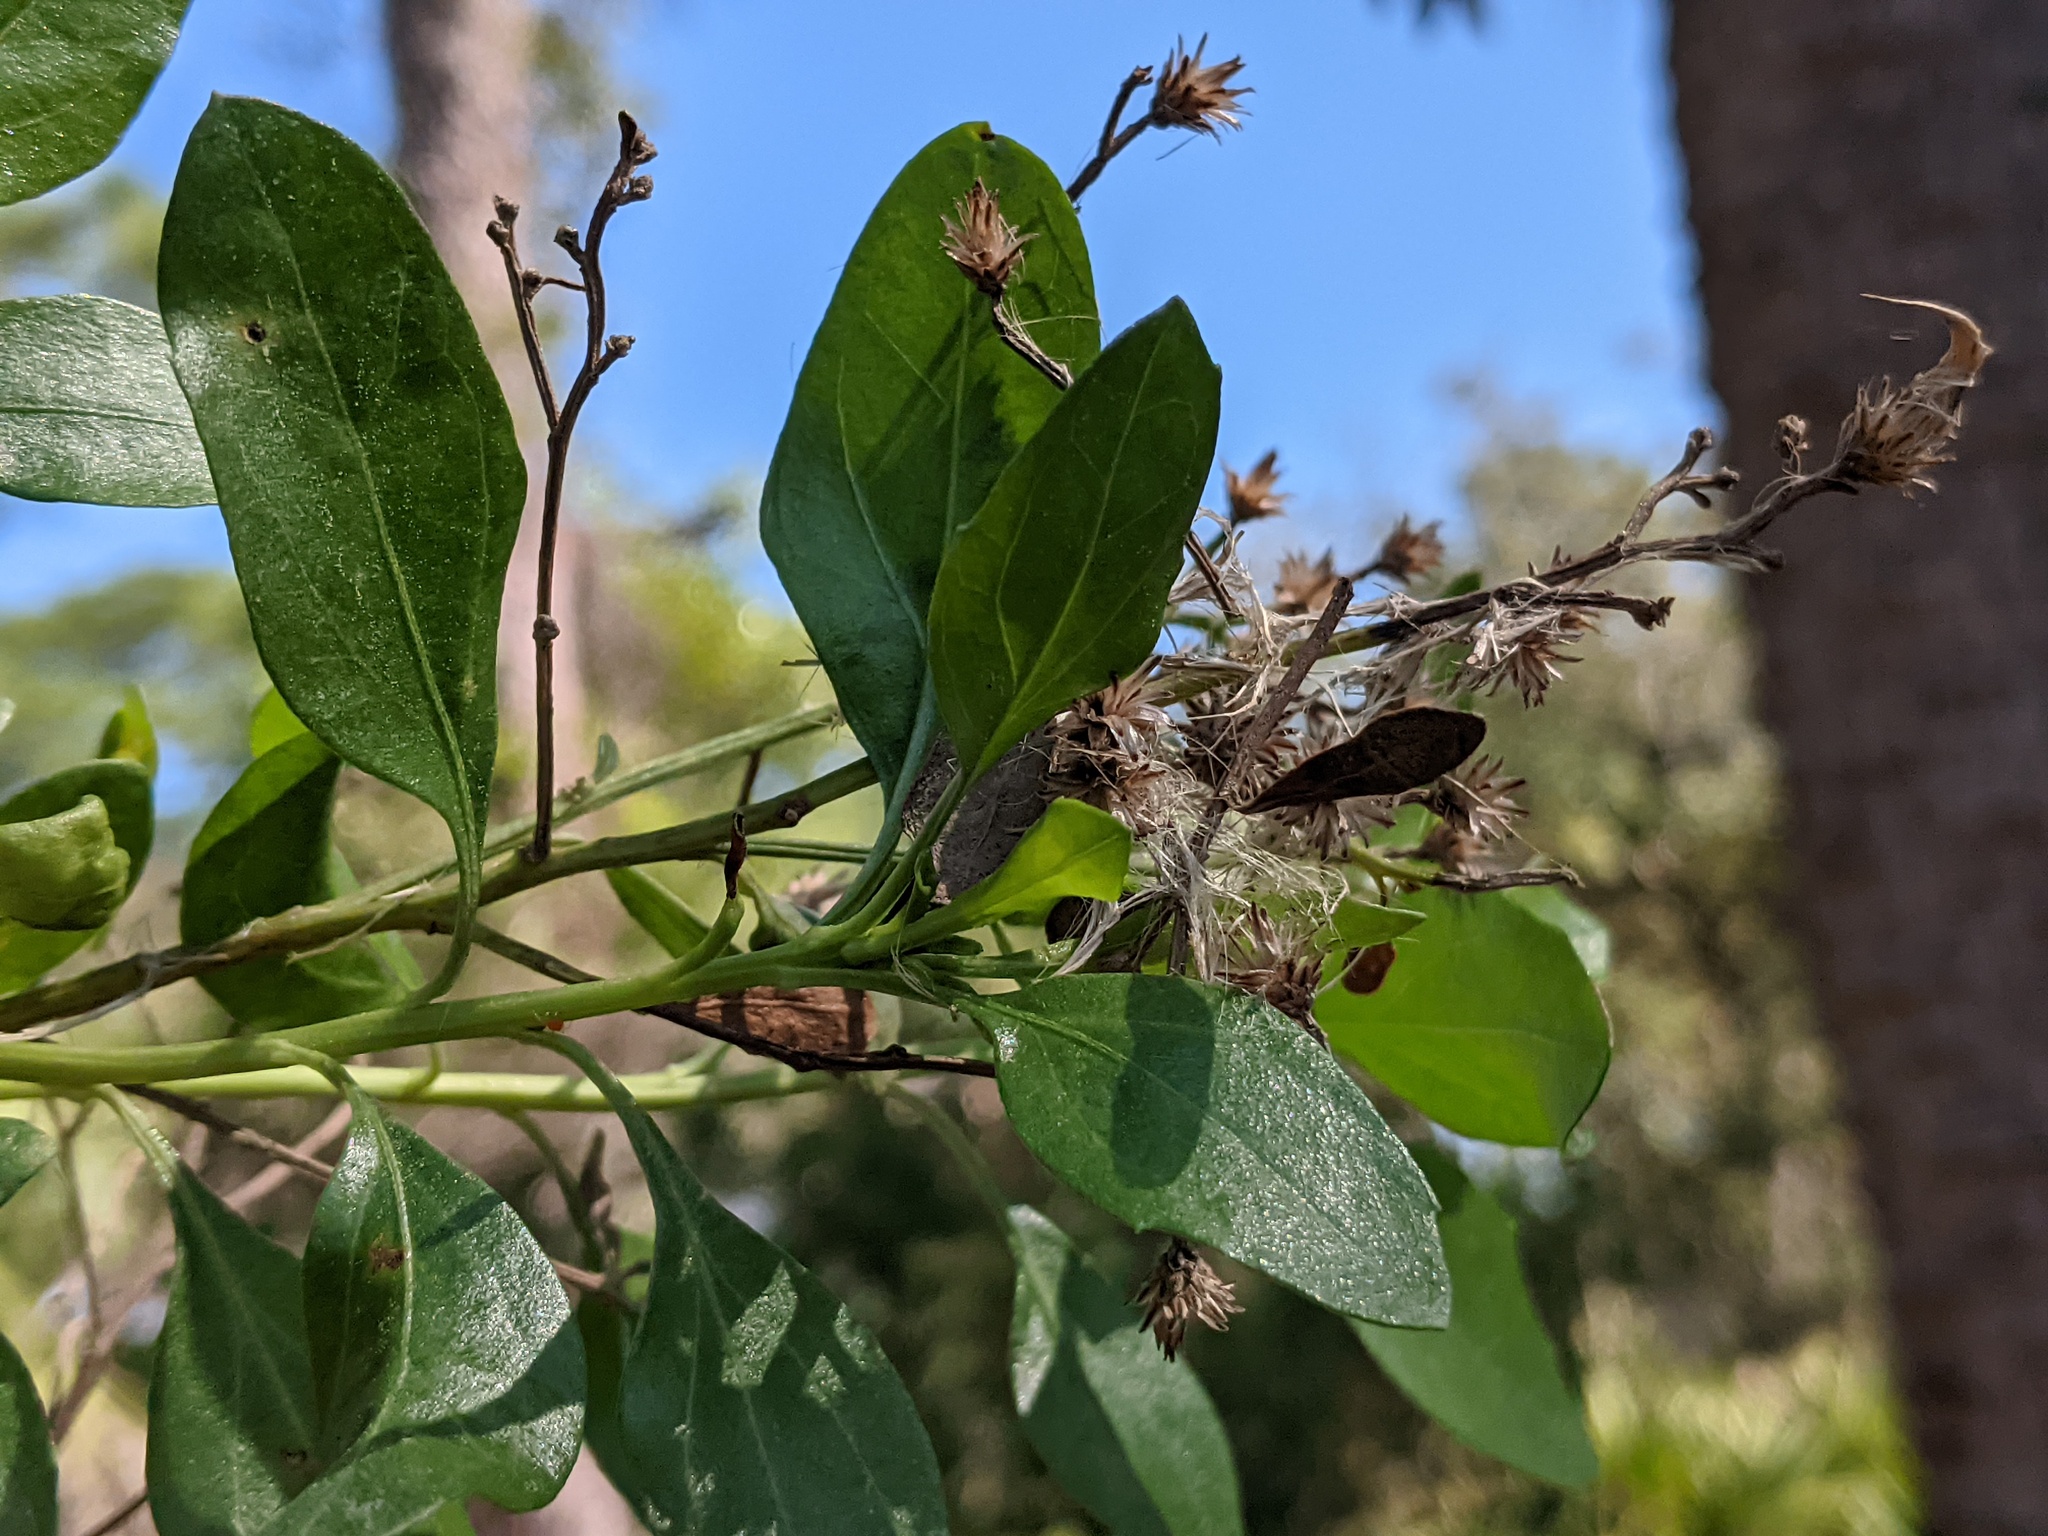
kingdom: Plantae
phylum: Tracheophyta
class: Magnoliopsida
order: Asterales
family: Asteraceae
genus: Baccharis
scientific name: Baccharis halimifolia
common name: Eastern baccharis
